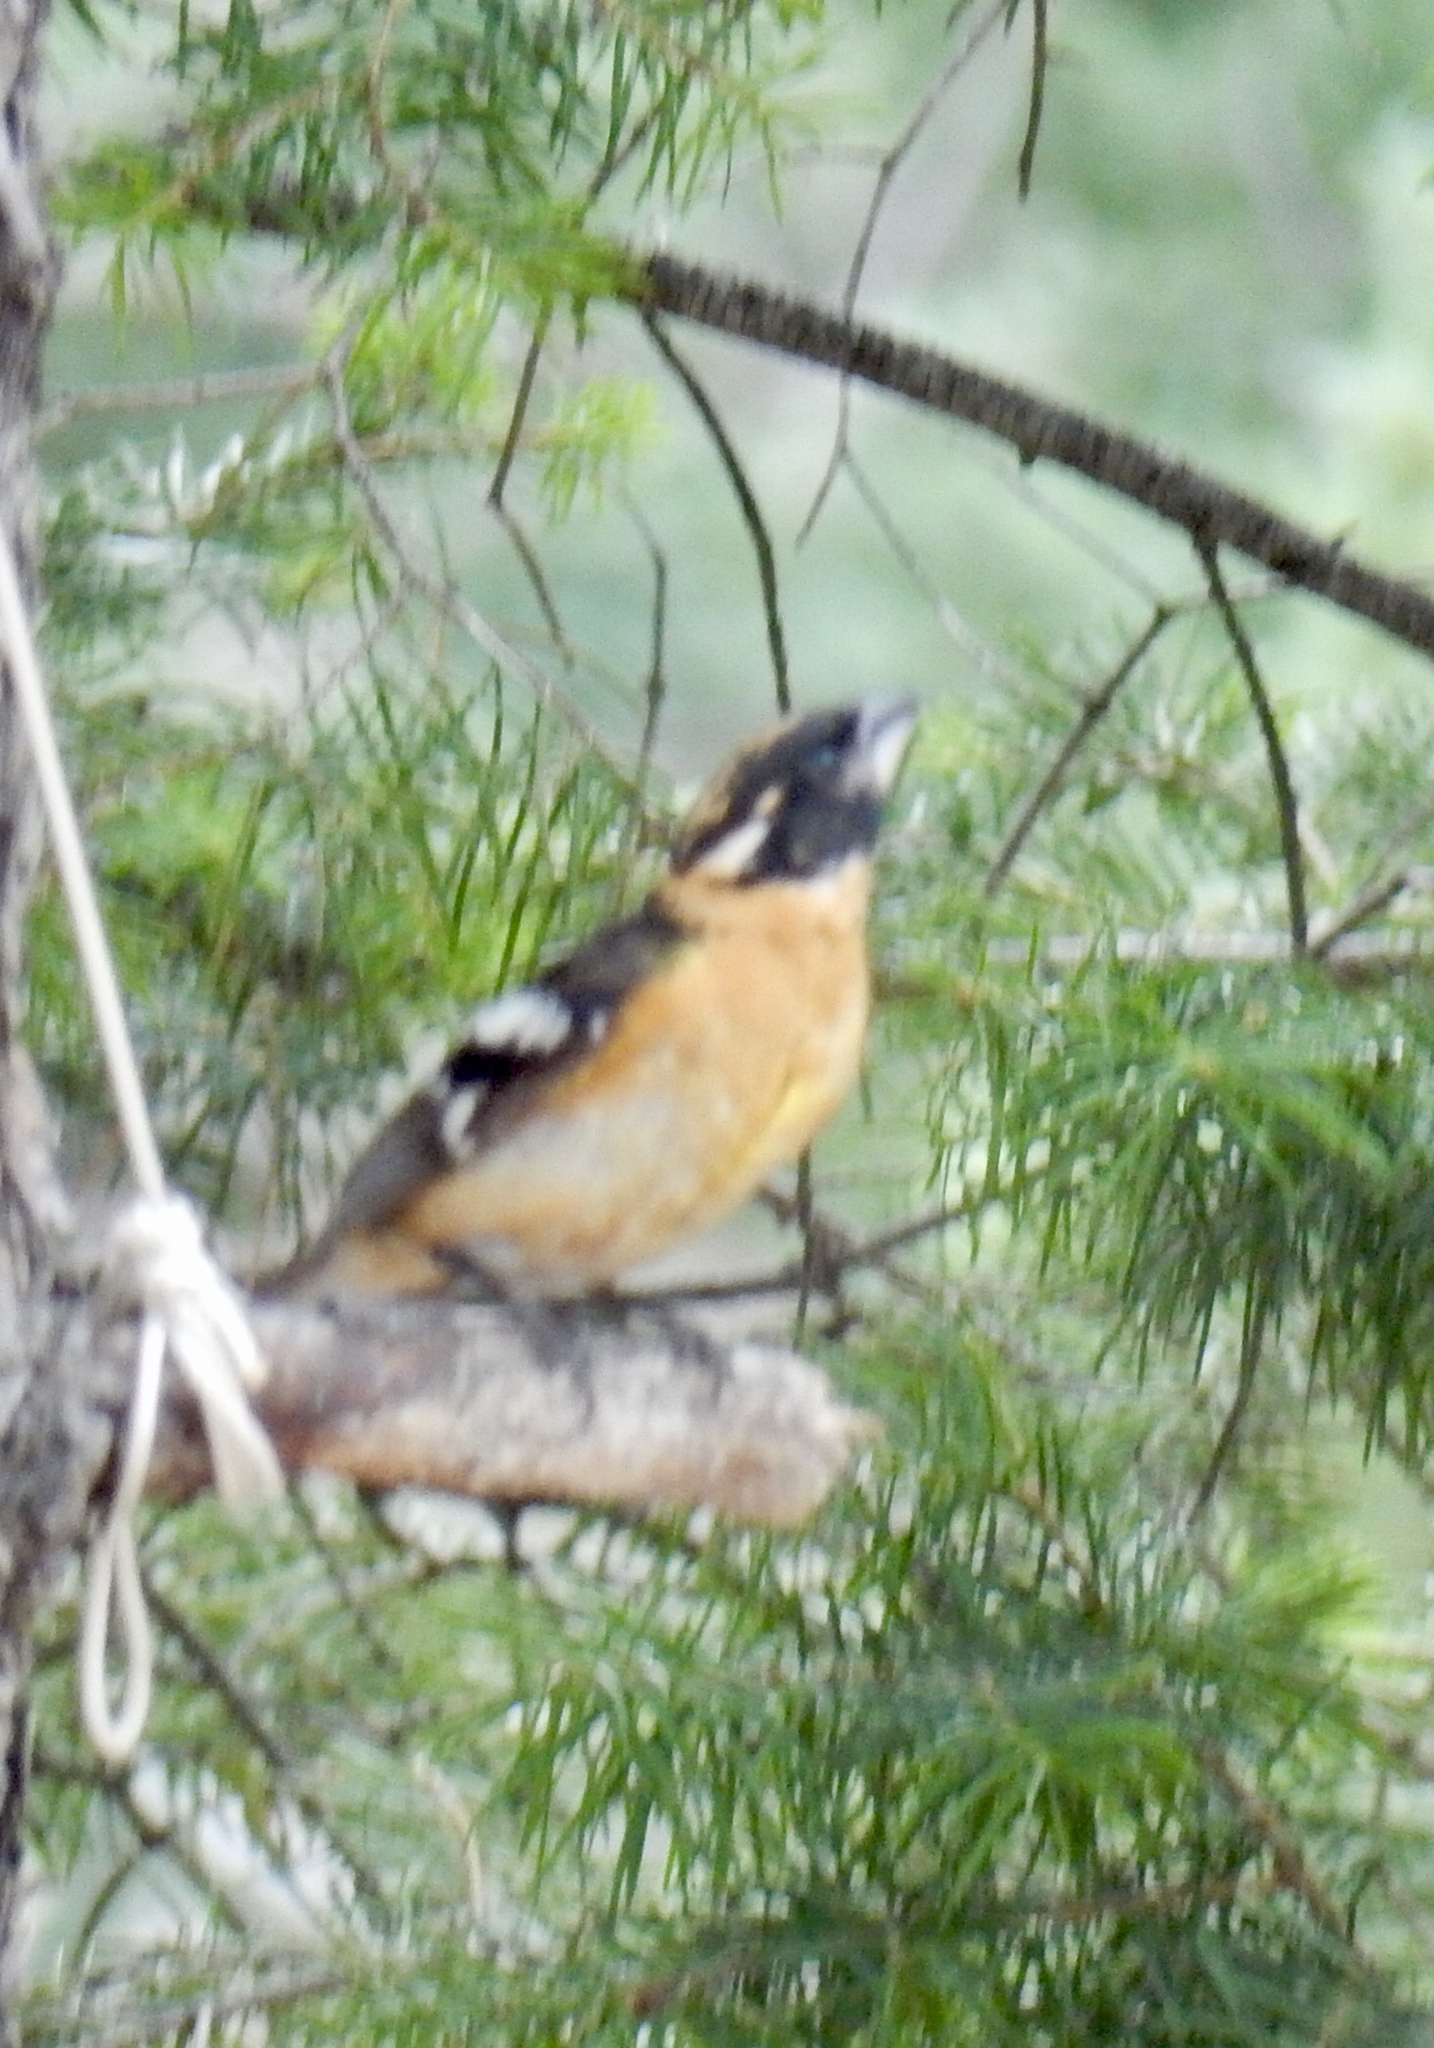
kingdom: Animalia
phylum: Chordata
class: Aves
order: Passeriformes
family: Cardinalidae
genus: Pheucticus
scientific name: Pheucticus melanocephalus
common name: Black-headed grosbeak
